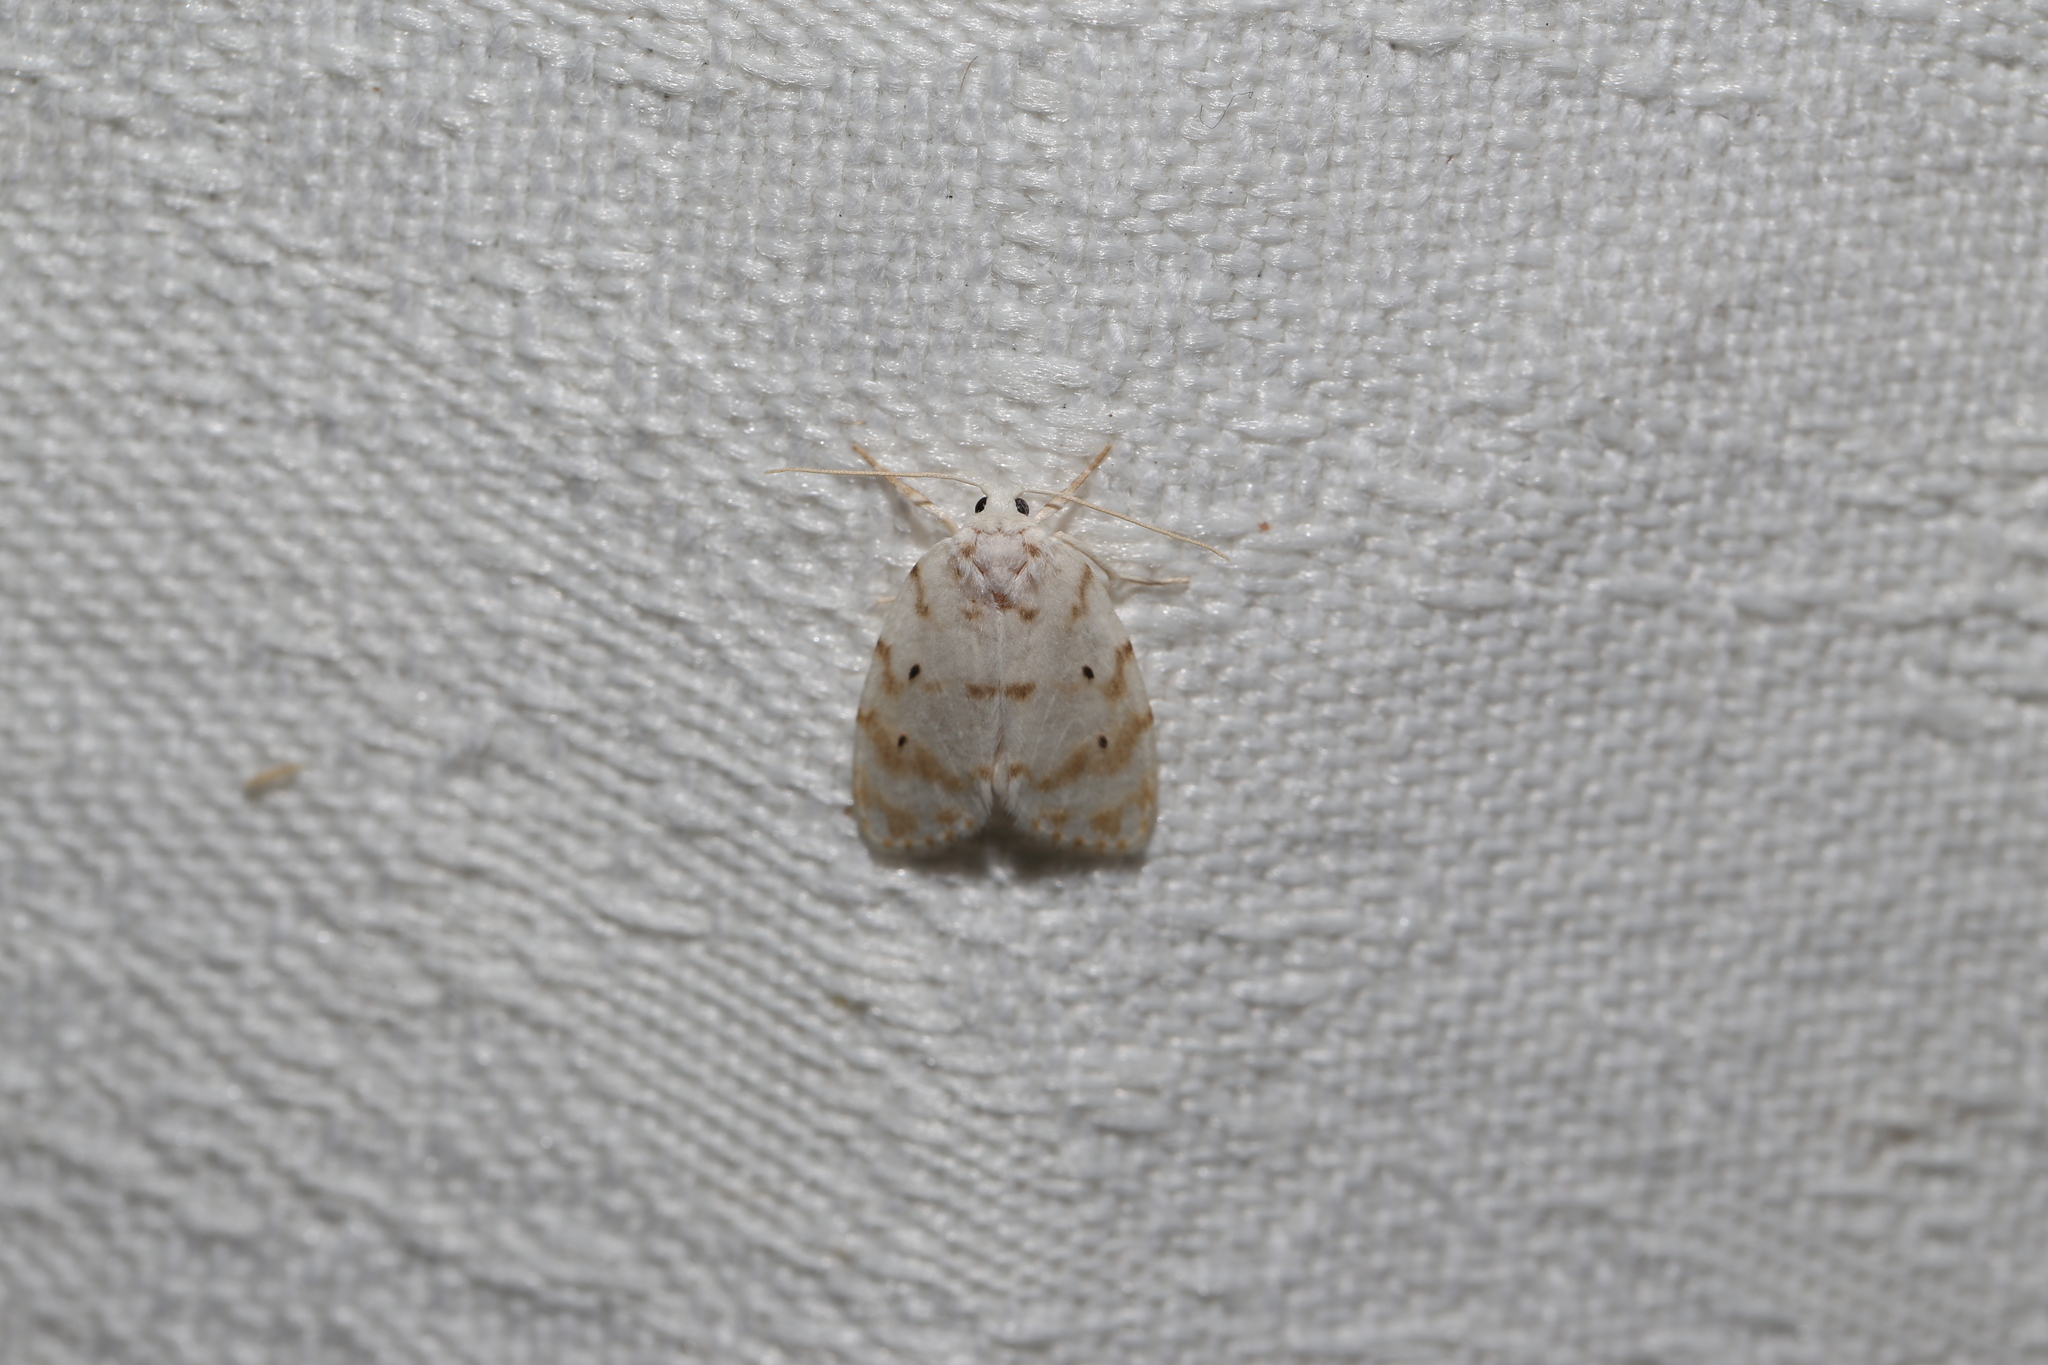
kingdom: Animalia
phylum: Arthropoda
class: Insecta
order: Lepidoptera
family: Erebidae
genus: Schistophleps
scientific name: Schistophleps albida
